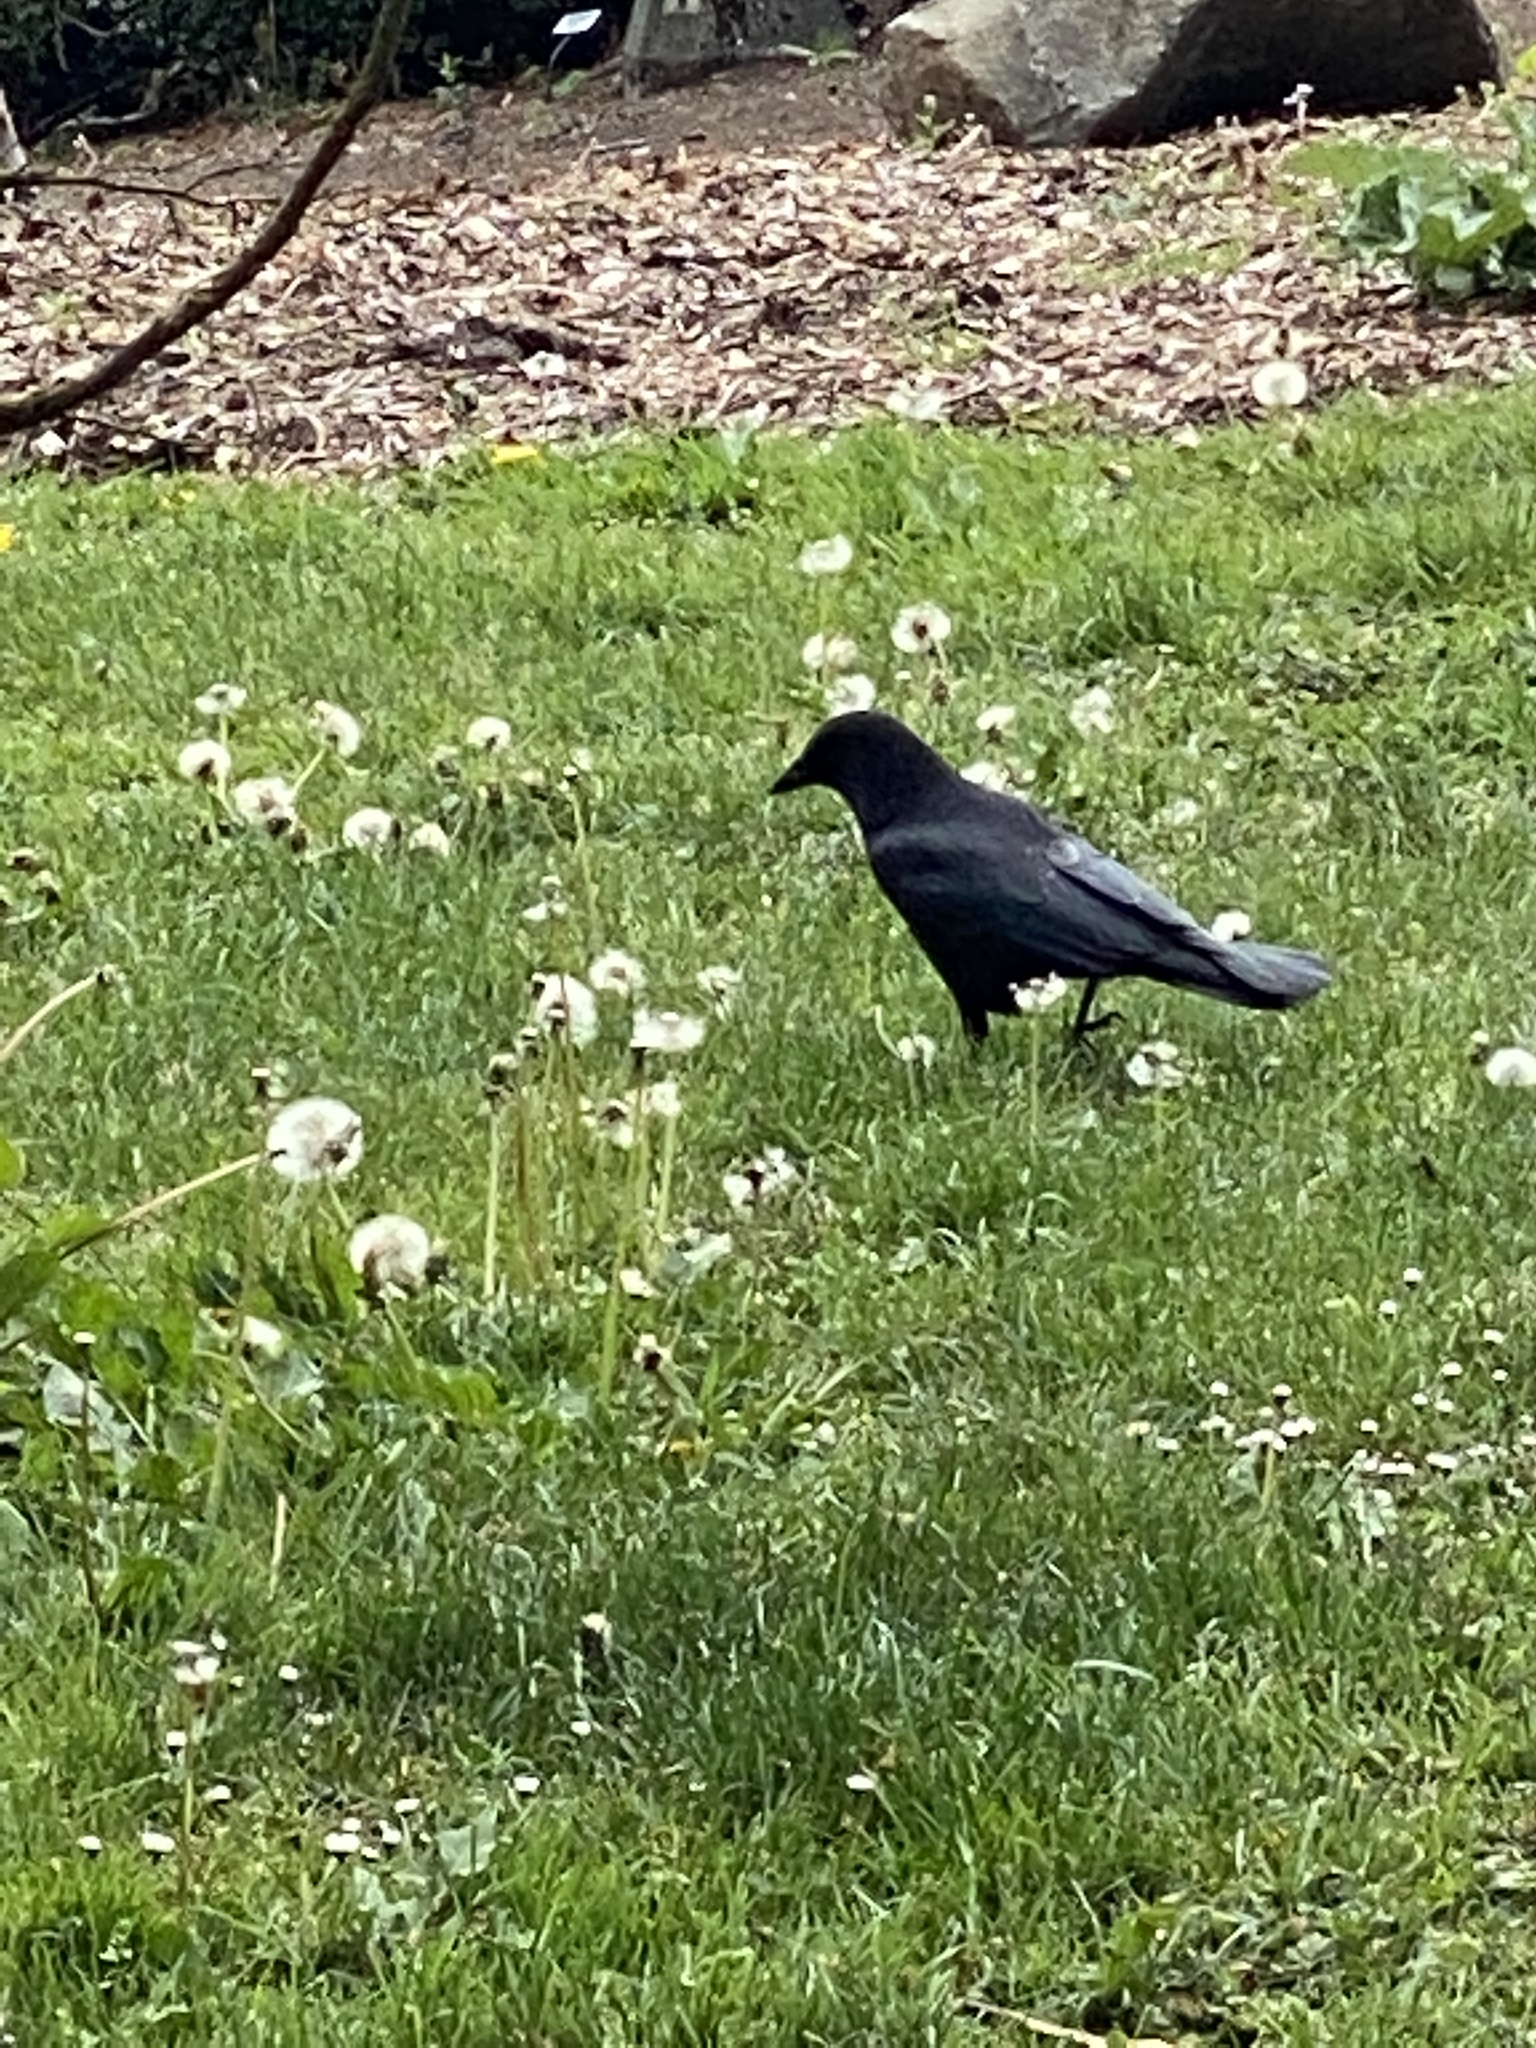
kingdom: Animalia
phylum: Chordata
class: Aves
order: Passeriformes
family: Corvidae
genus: Corvus
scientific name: Corvus brachyrhynchos
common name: American crow
